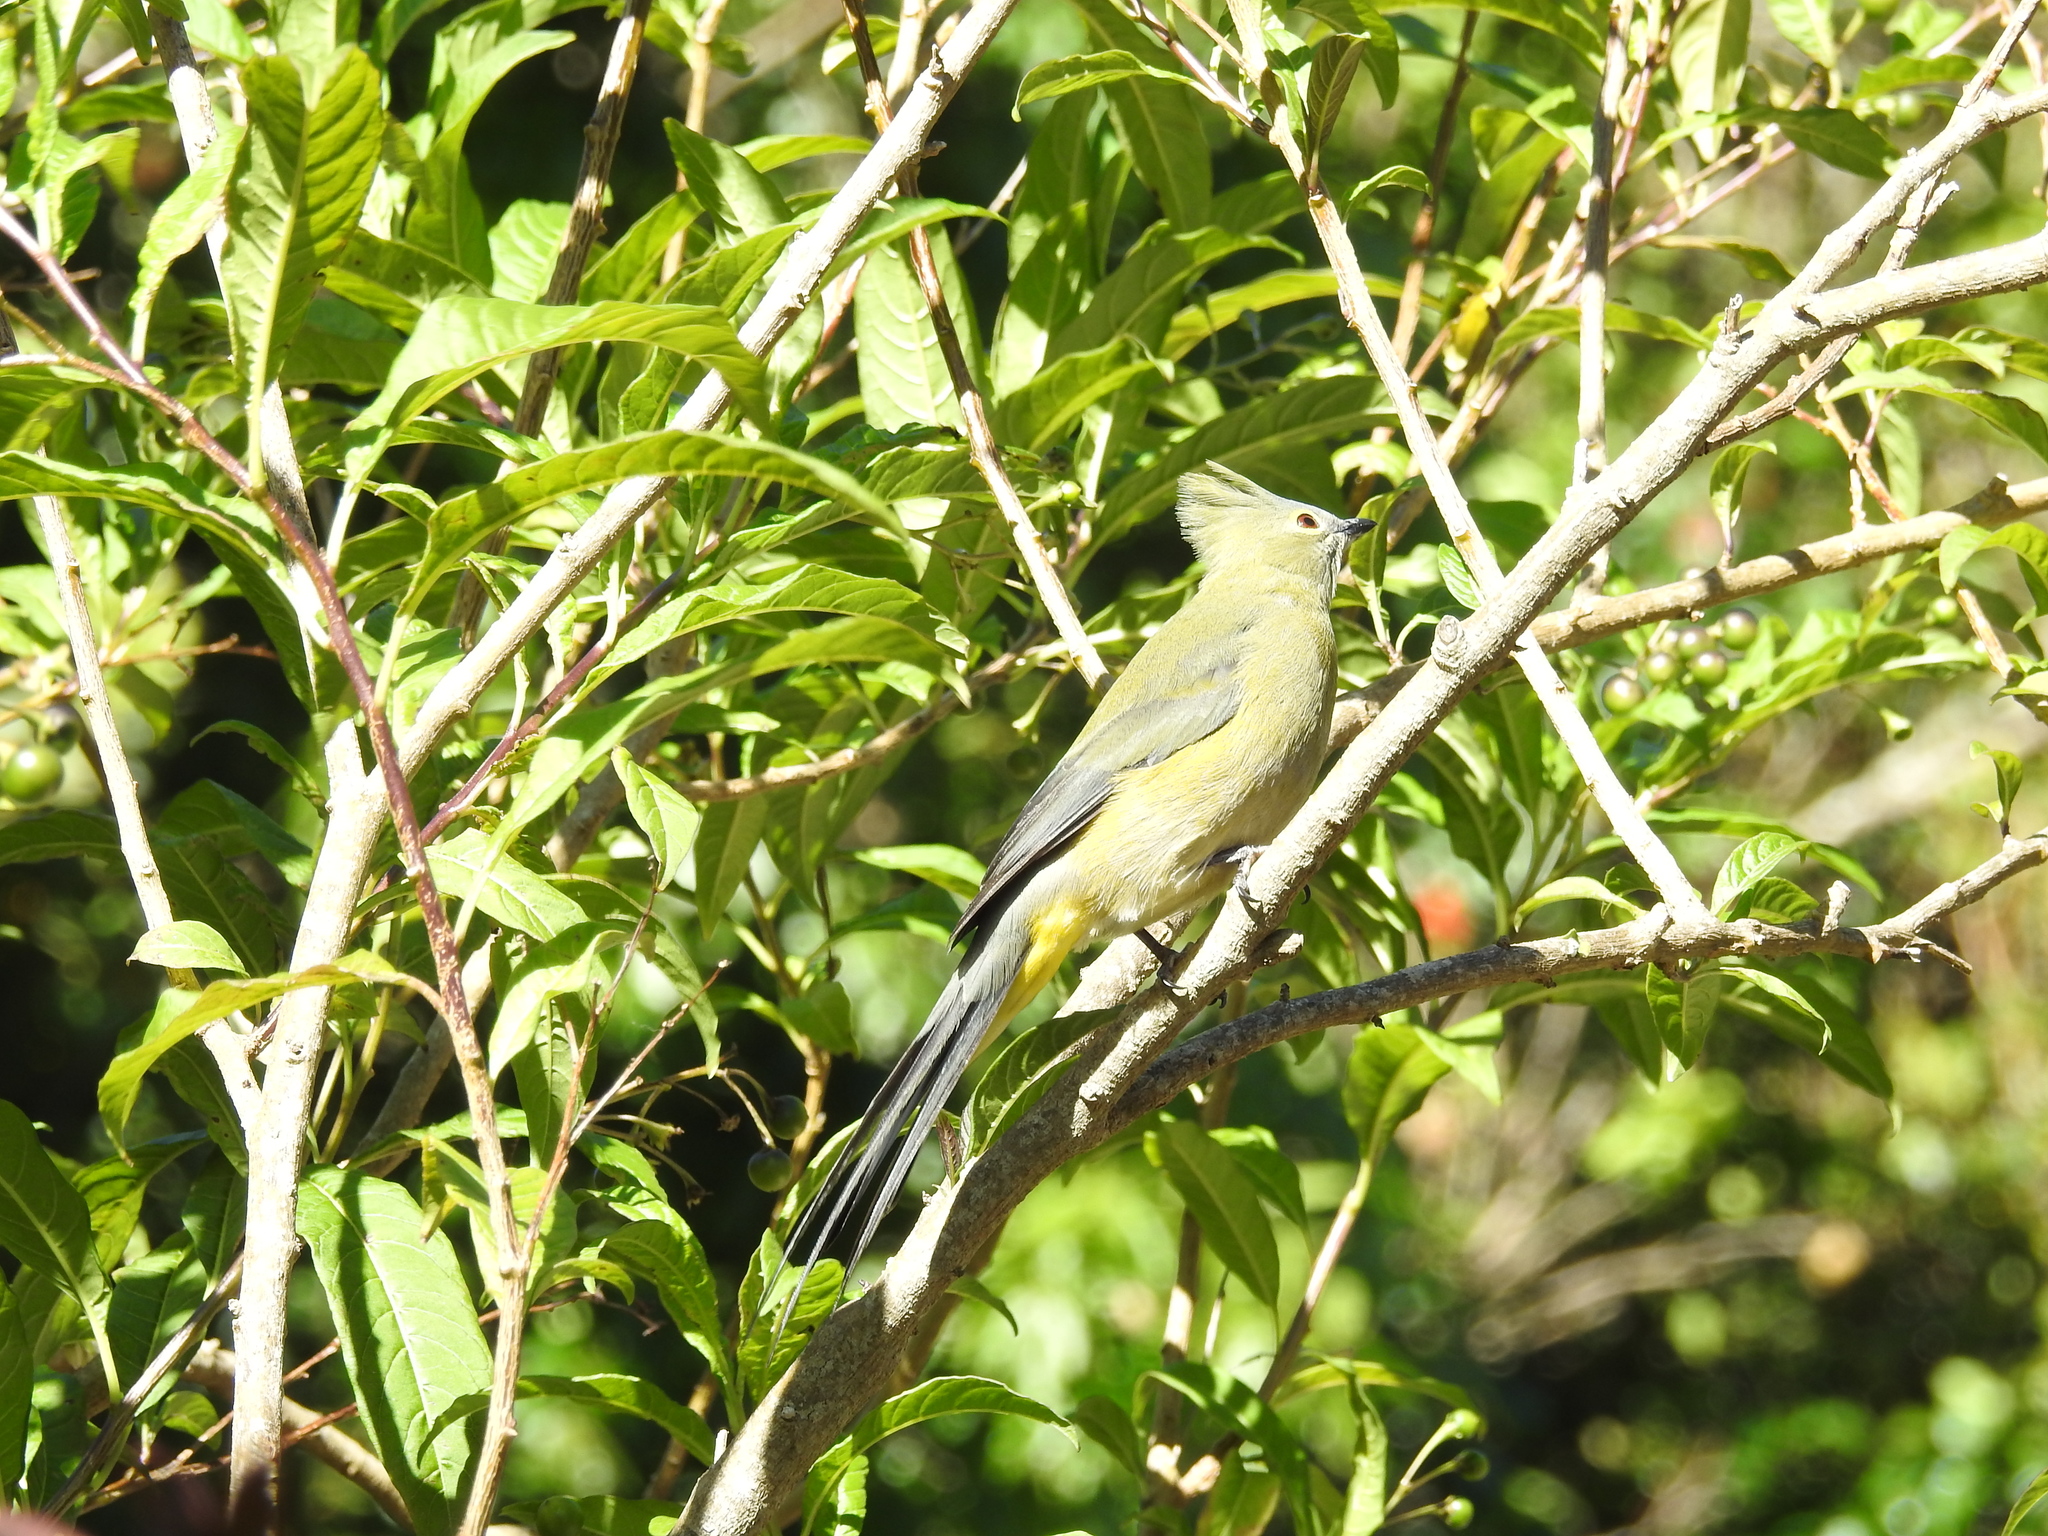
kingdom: Animalia
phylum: Chordata
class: Aves
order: Passeriformes
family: Ptilogonatidae
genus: Ptilogonys
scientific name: Ptilogonys caudatus
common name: Long-tailed silky-flycatcher
